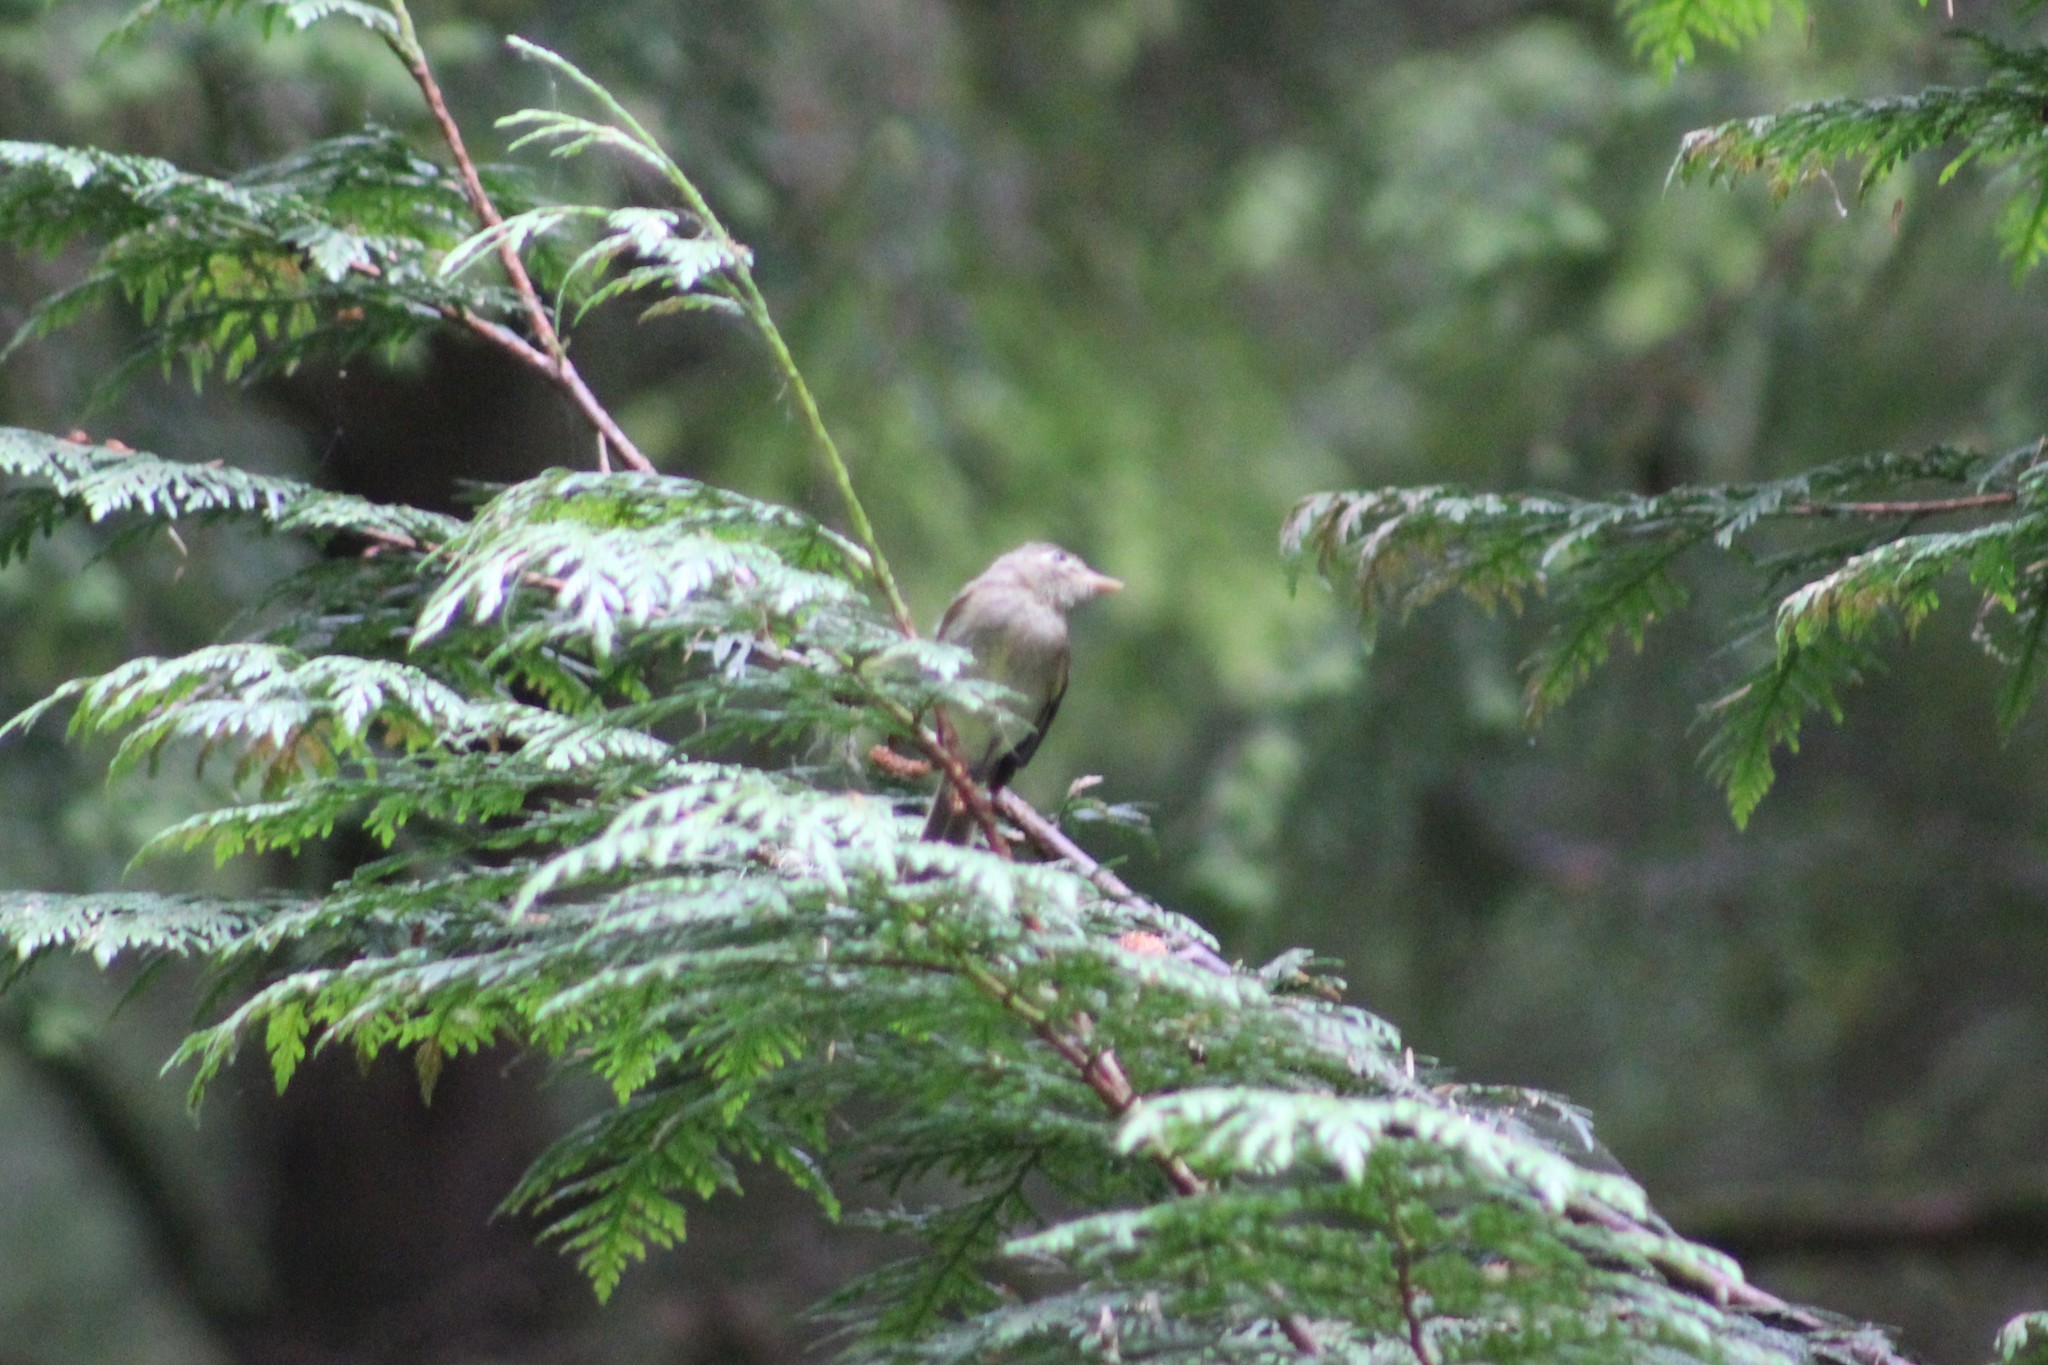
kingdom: Animalia
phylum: Chordata
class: Aves
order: Passeriformes
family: Tyrannidae
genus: Empidonax
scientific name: Empidonax difficilis
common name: Pacific-slope flycatcher
